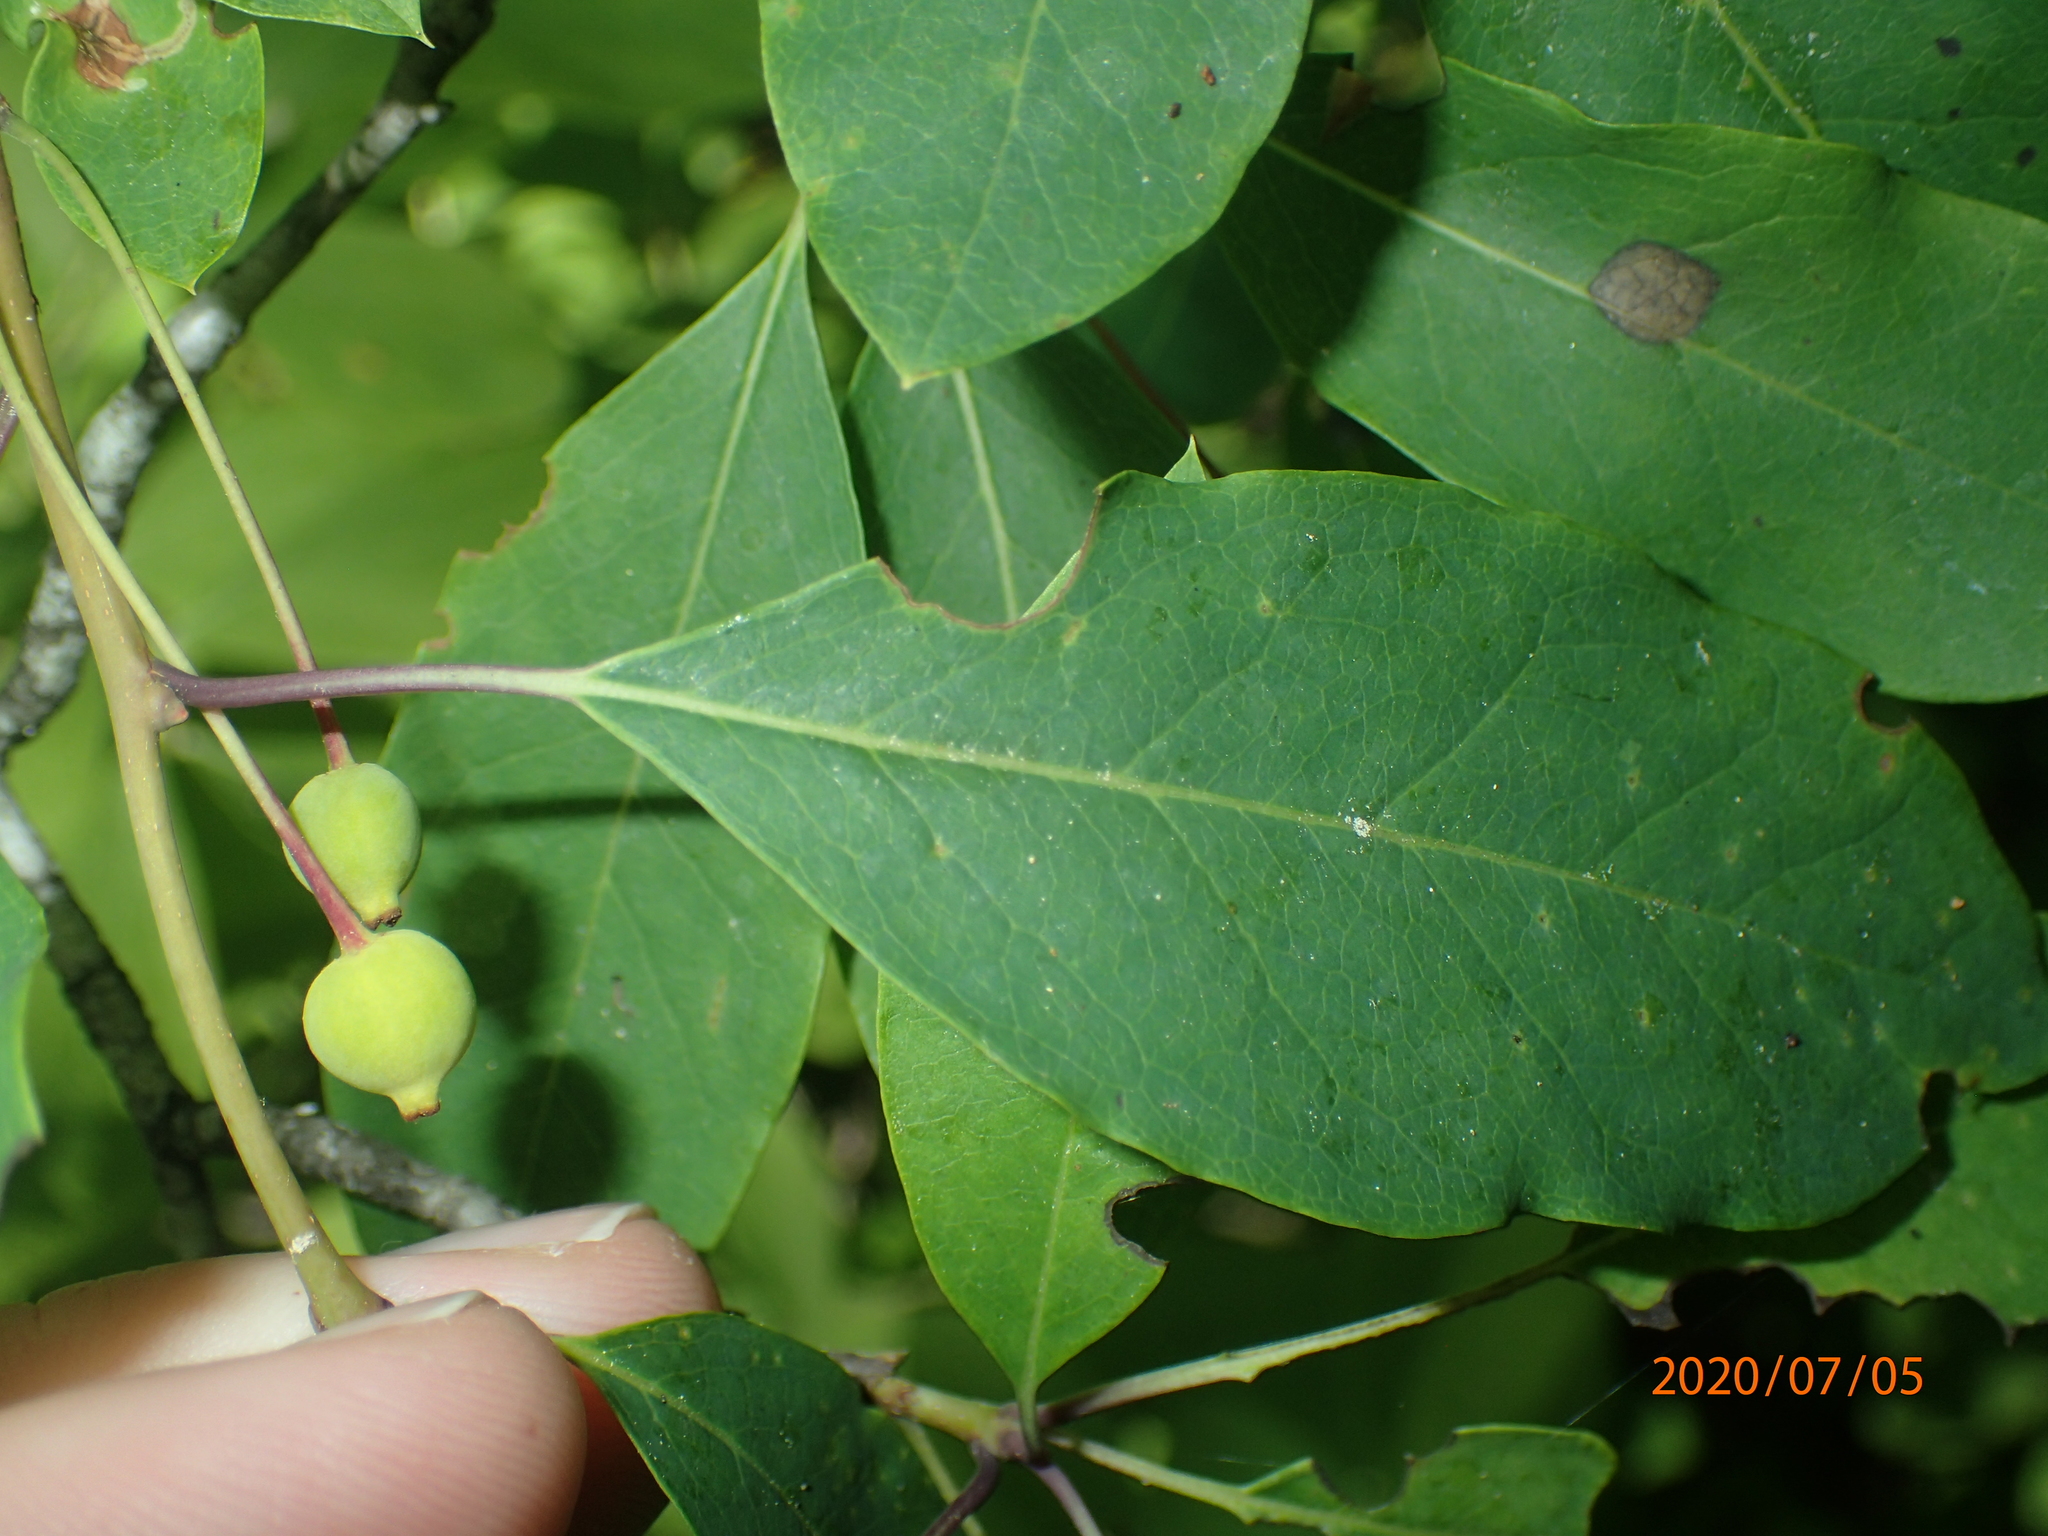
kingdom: Plantae
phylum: Tracheophyta
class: Magnoliopsida
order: Aquifoliales
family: Aquifoliaceae
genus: Ilex
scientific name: Ilex mucronata
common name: Catberry
